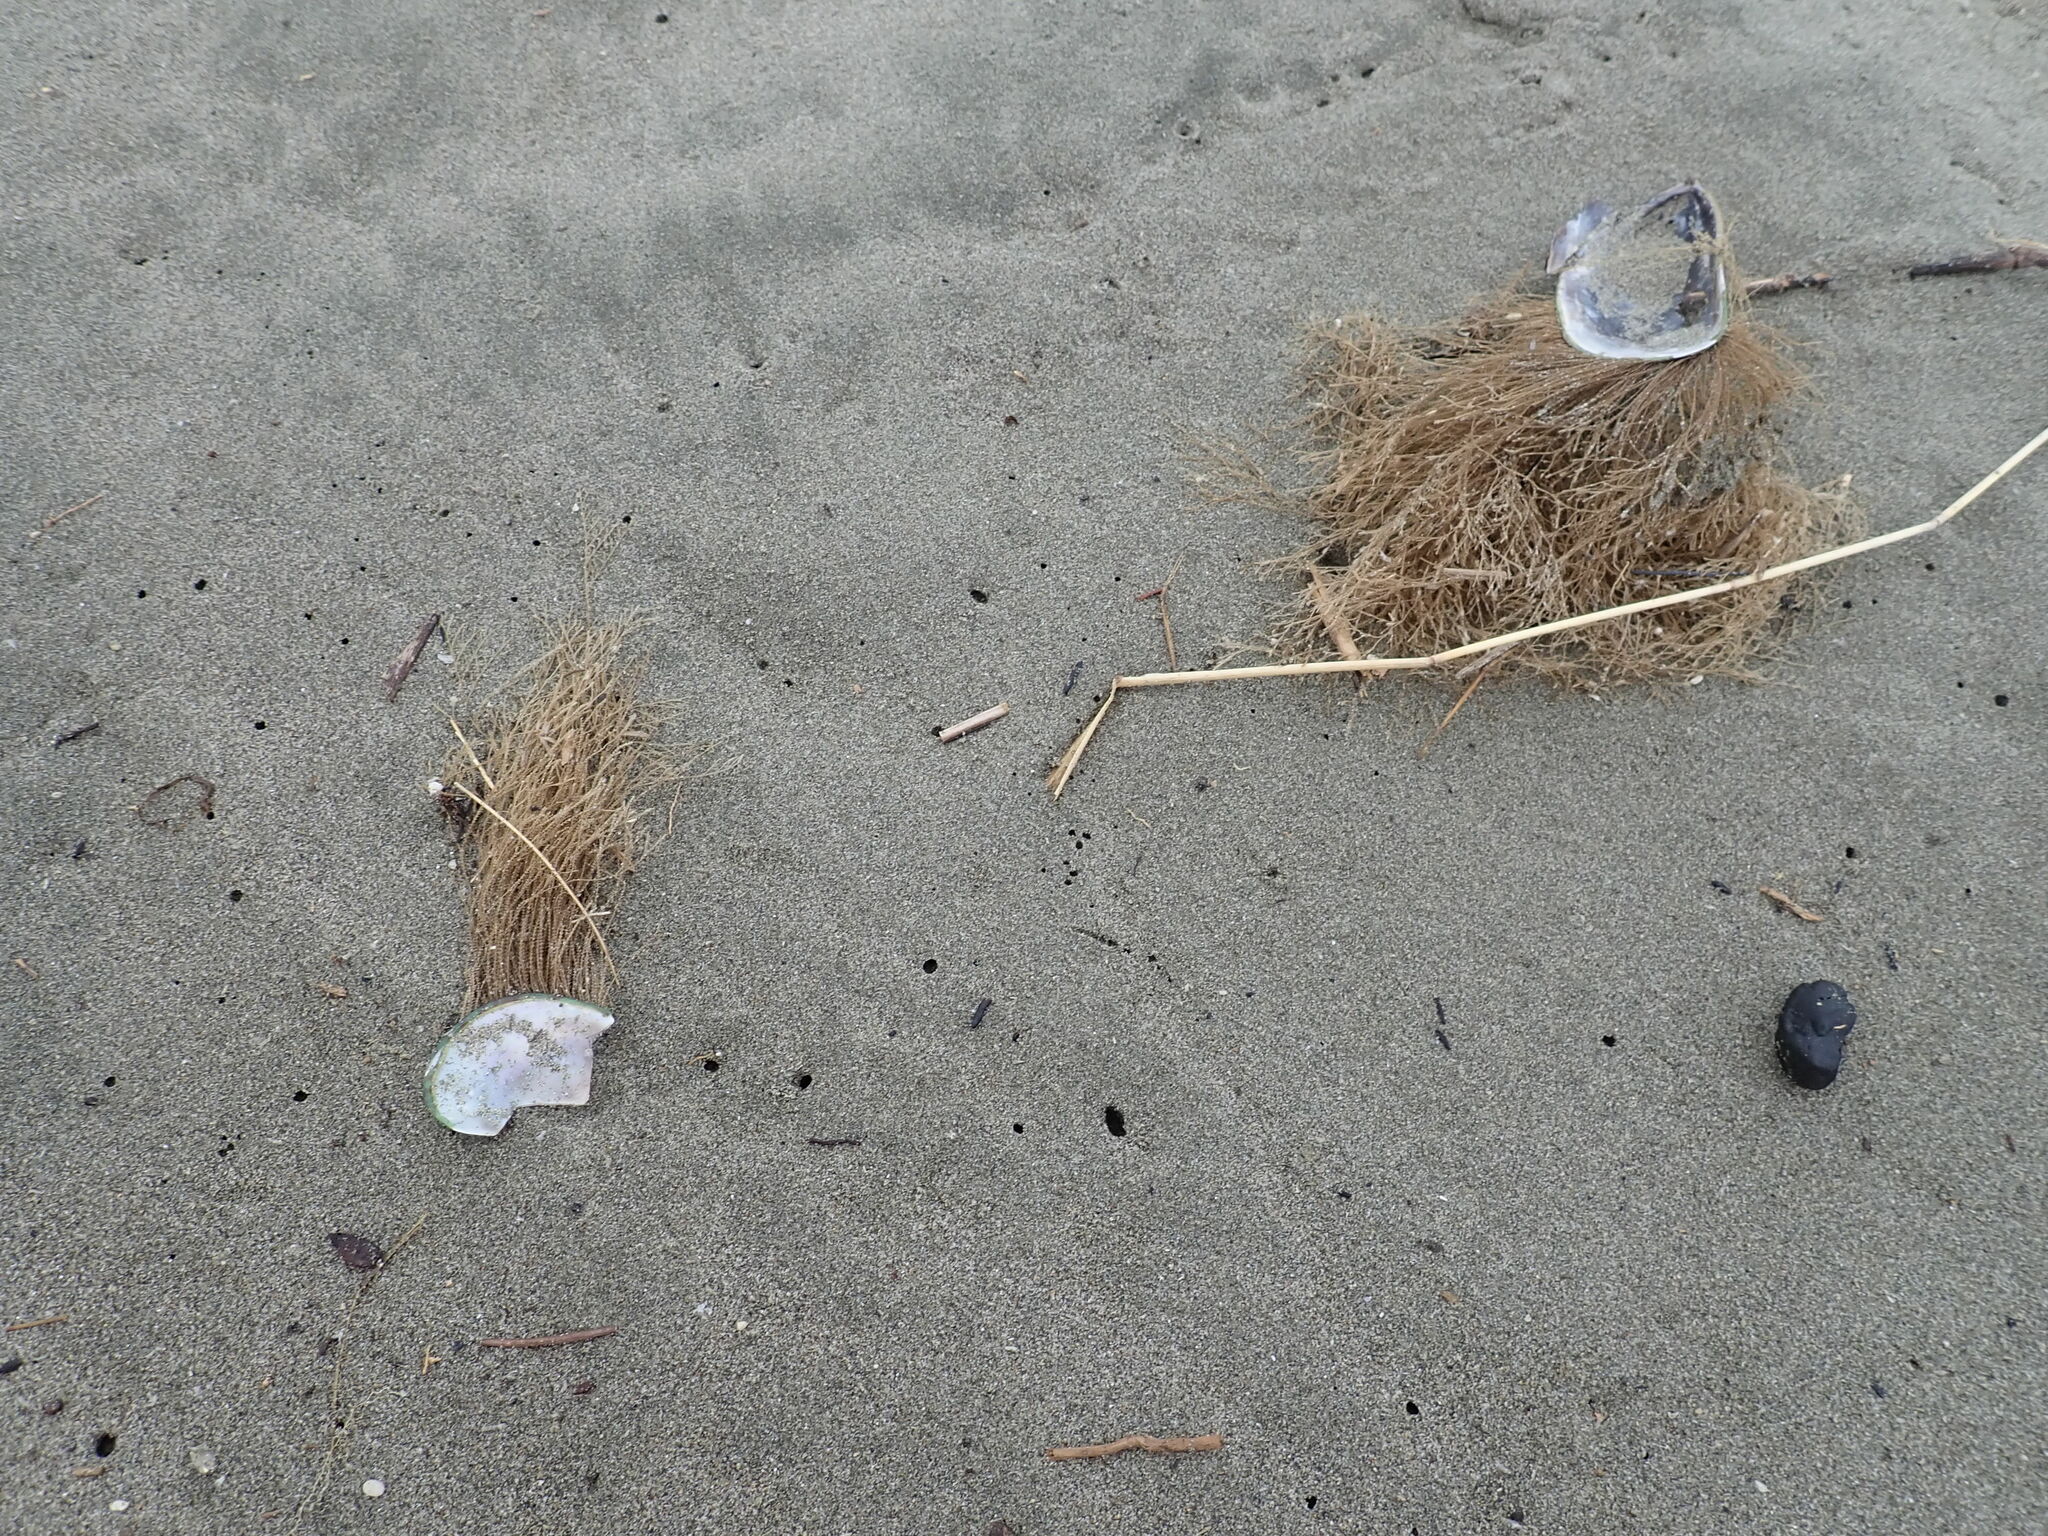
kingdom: Animalia
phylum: Cnidaria
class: Hydrozoa
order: Leptothecata
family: Sertulariidae
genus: Amphisbetia
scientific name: Amphisbetia bispinosa
